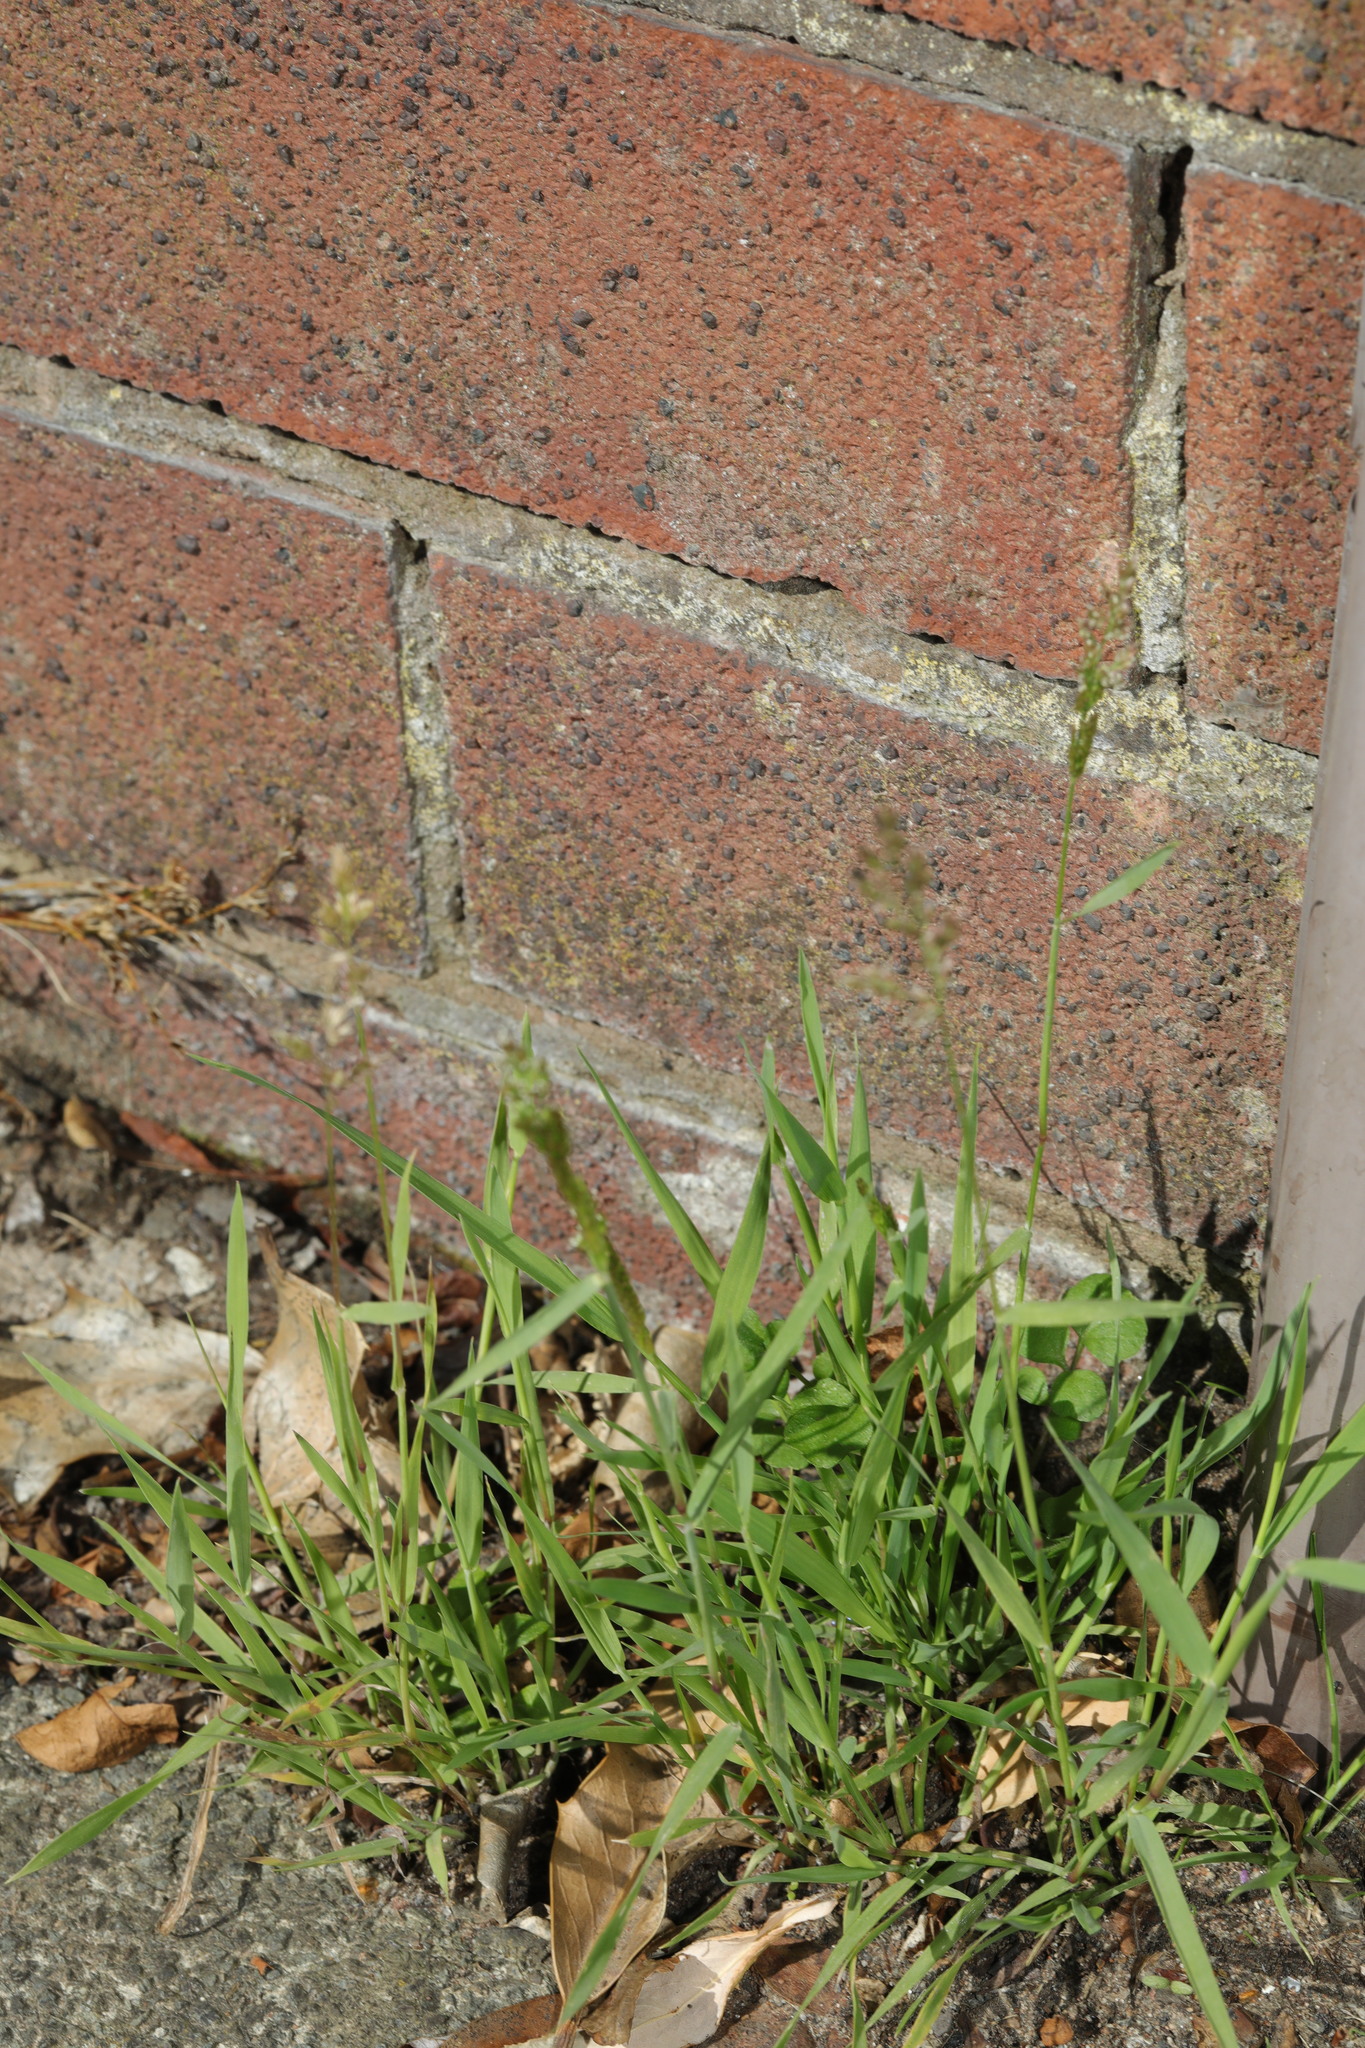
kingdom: Plantae
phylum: Tracheophyta
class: Liliopsida
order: Poales
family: Poaceae
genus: Polypogon
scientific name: Polypogon viridis
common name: Water bent
